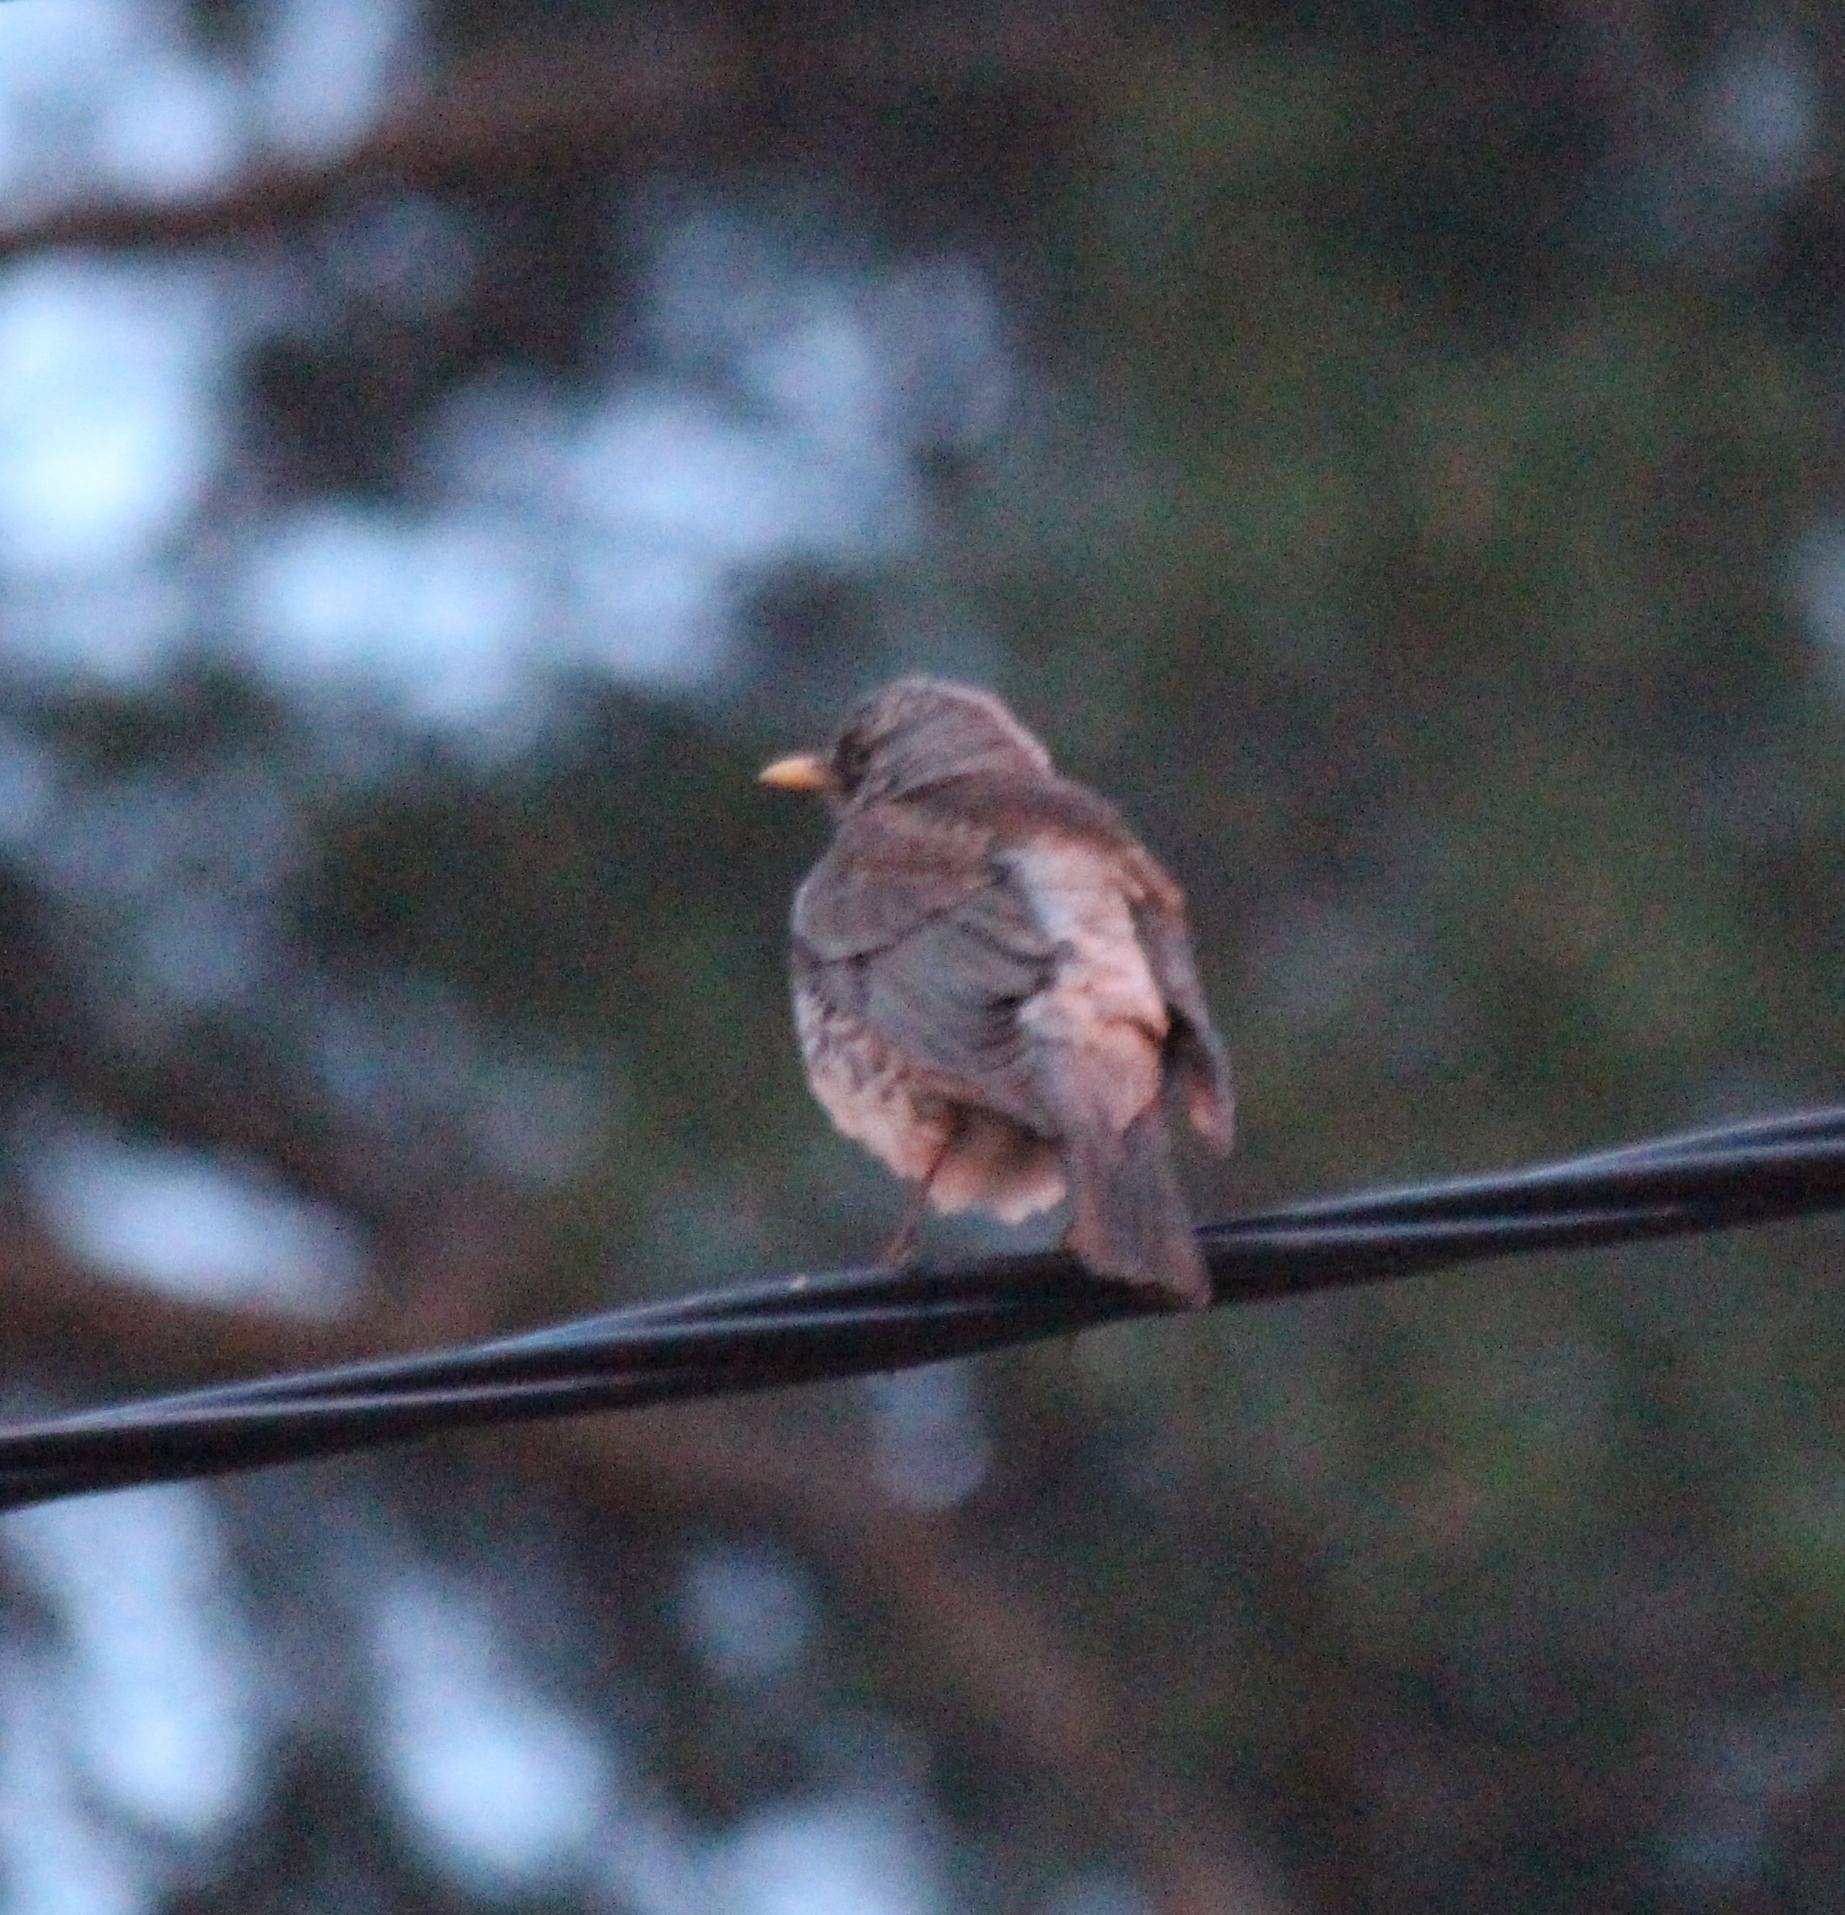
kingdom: Animalia
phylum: Chordata
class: Aves
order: Passeriformes
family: Turdidae
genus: Turdus
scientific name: Turdus pilaris
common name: Fieldfare
